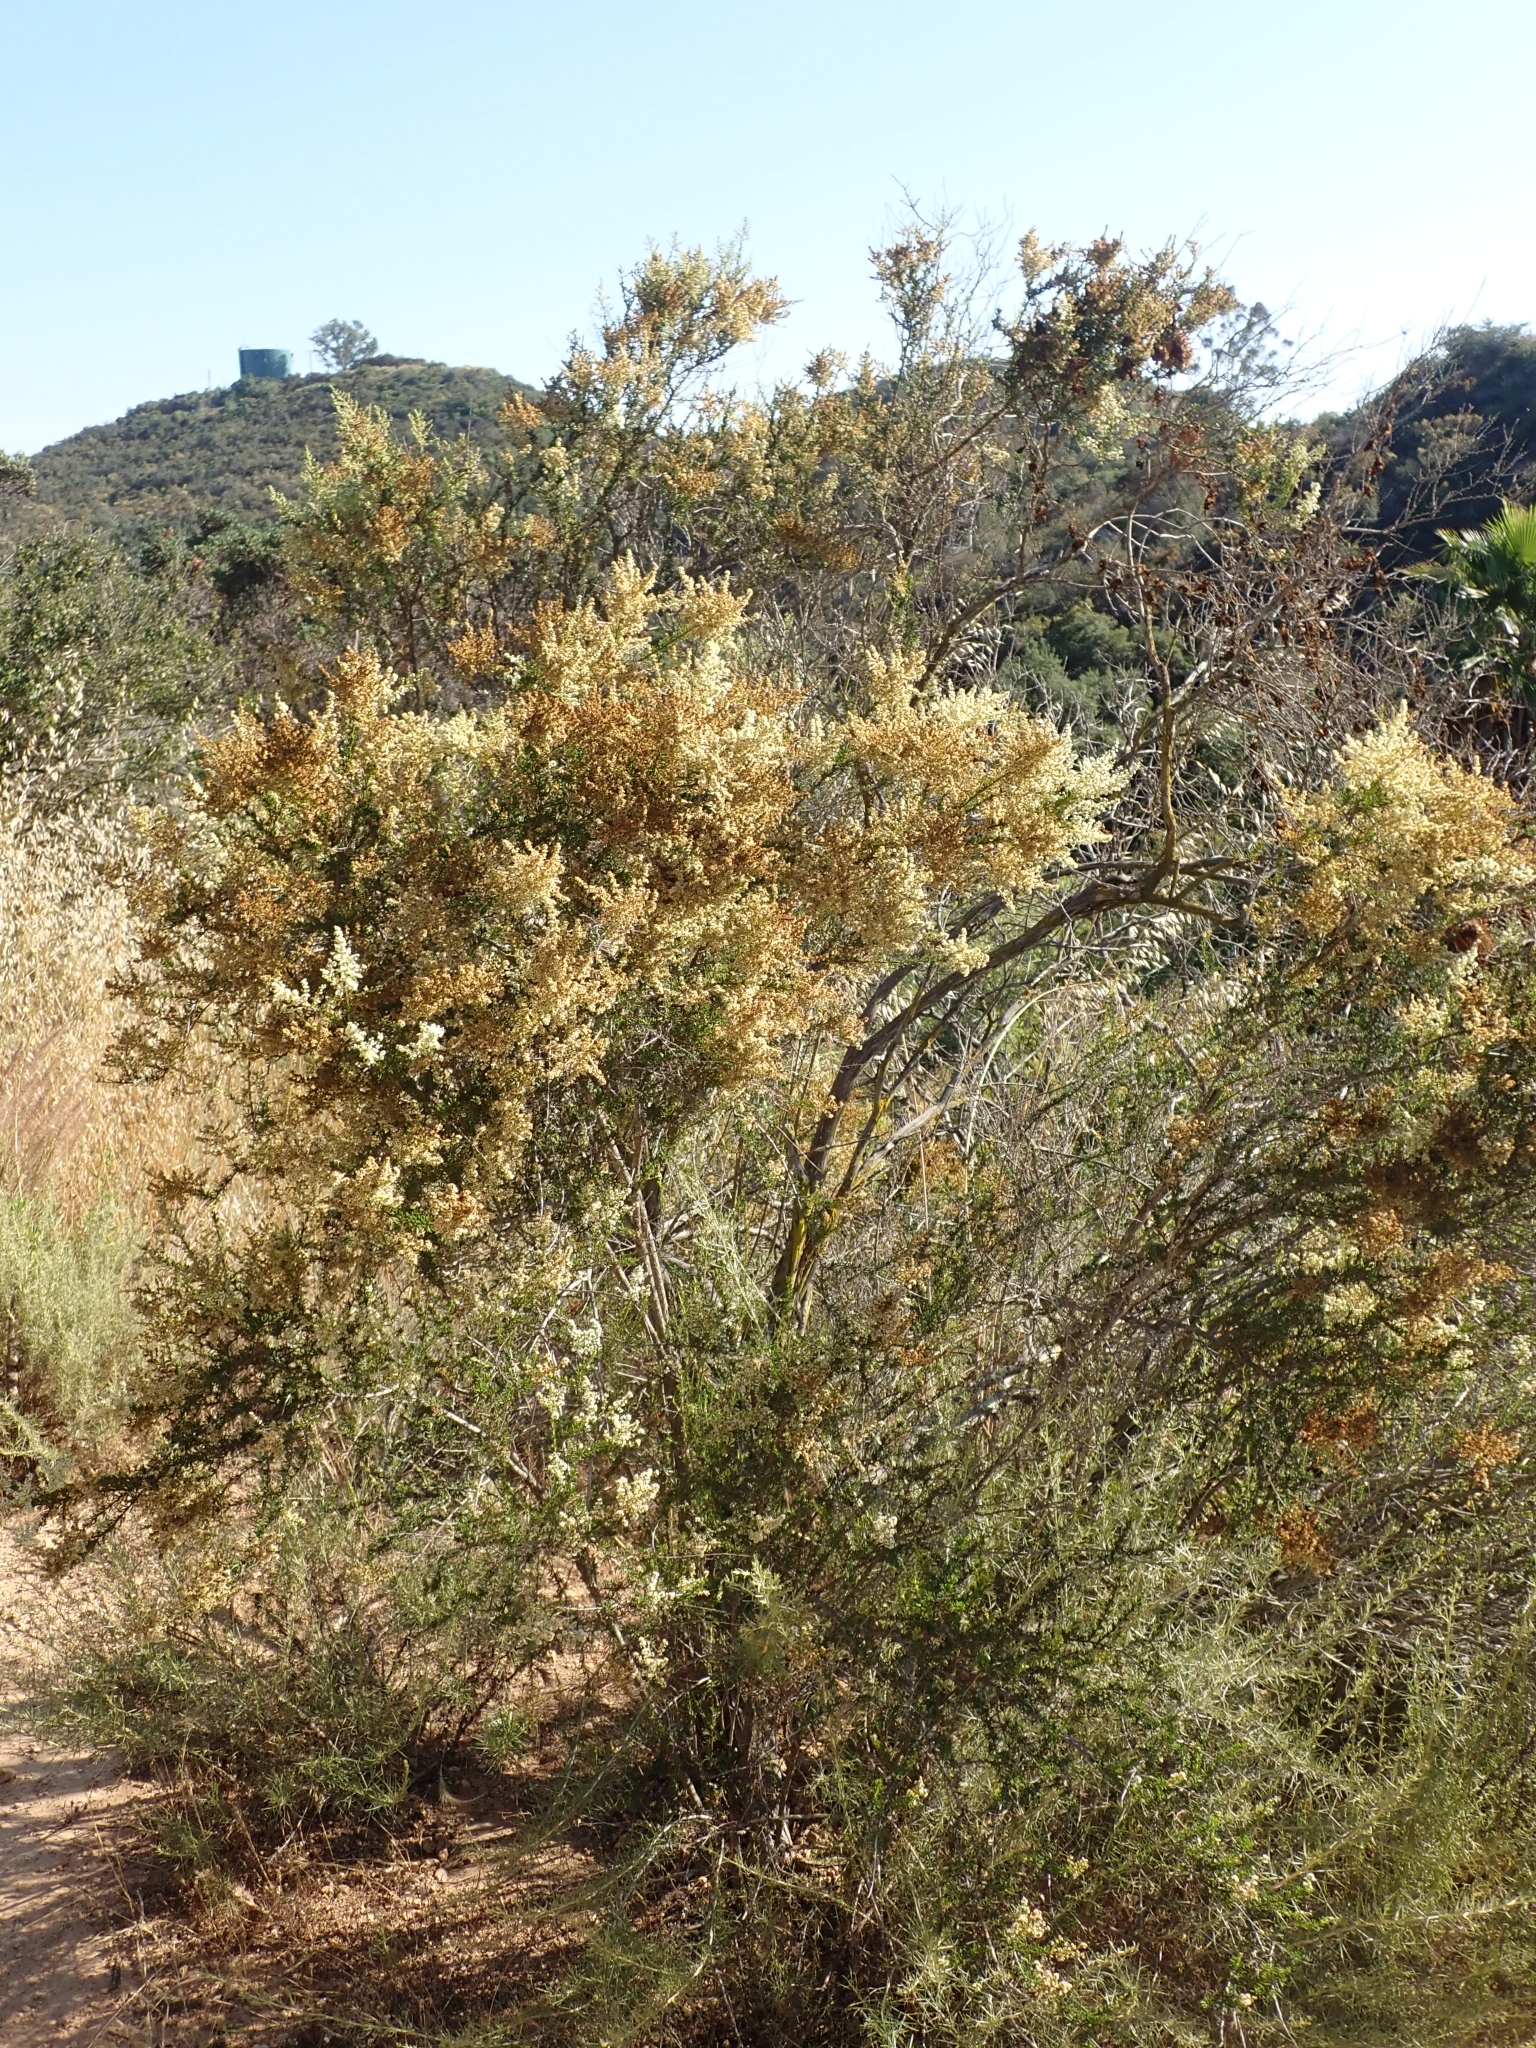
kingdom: Plantae
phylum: Tracheophyta
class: Magnoliopsida
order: Rosales
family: Rosaceae
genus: Adenostoma
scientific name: Adenostoma fasciculatum
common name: Chamise
